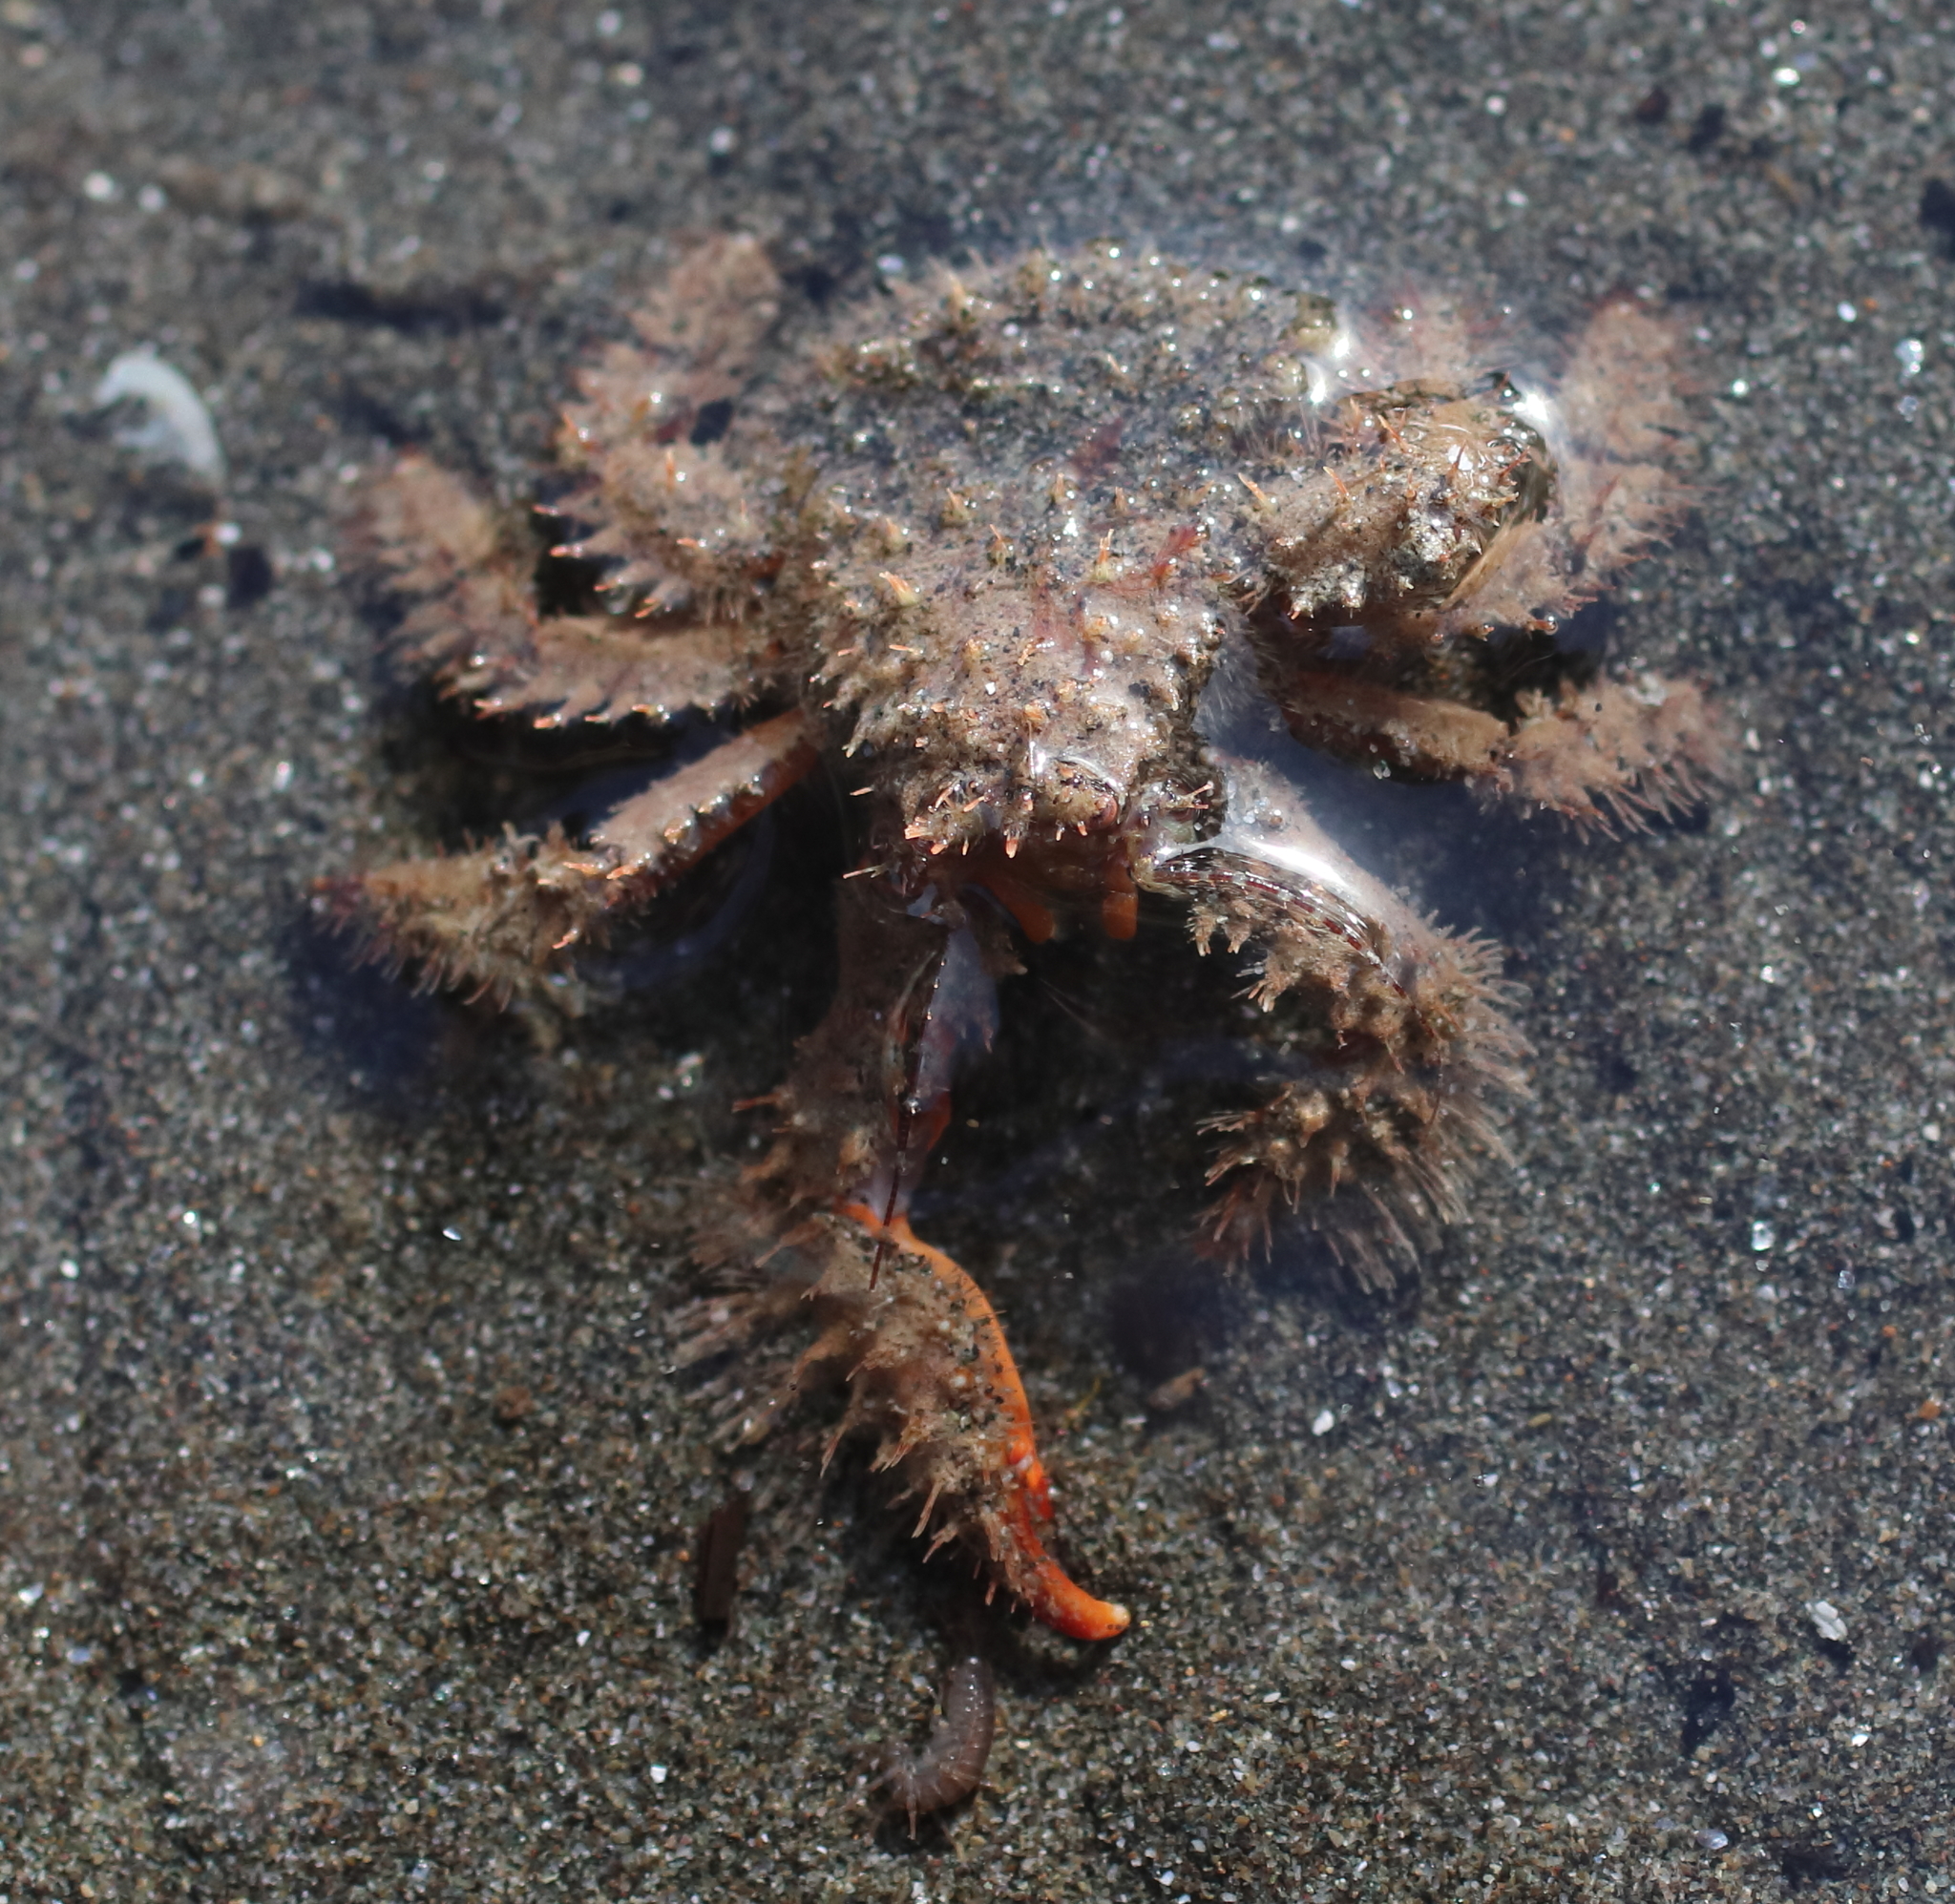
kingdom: Animalia
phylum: Arthropoda
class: Malacostraca
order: Decapoda
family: Hapalogastridae
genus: Hapalogaster
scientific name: Hapalogaster mertensii
